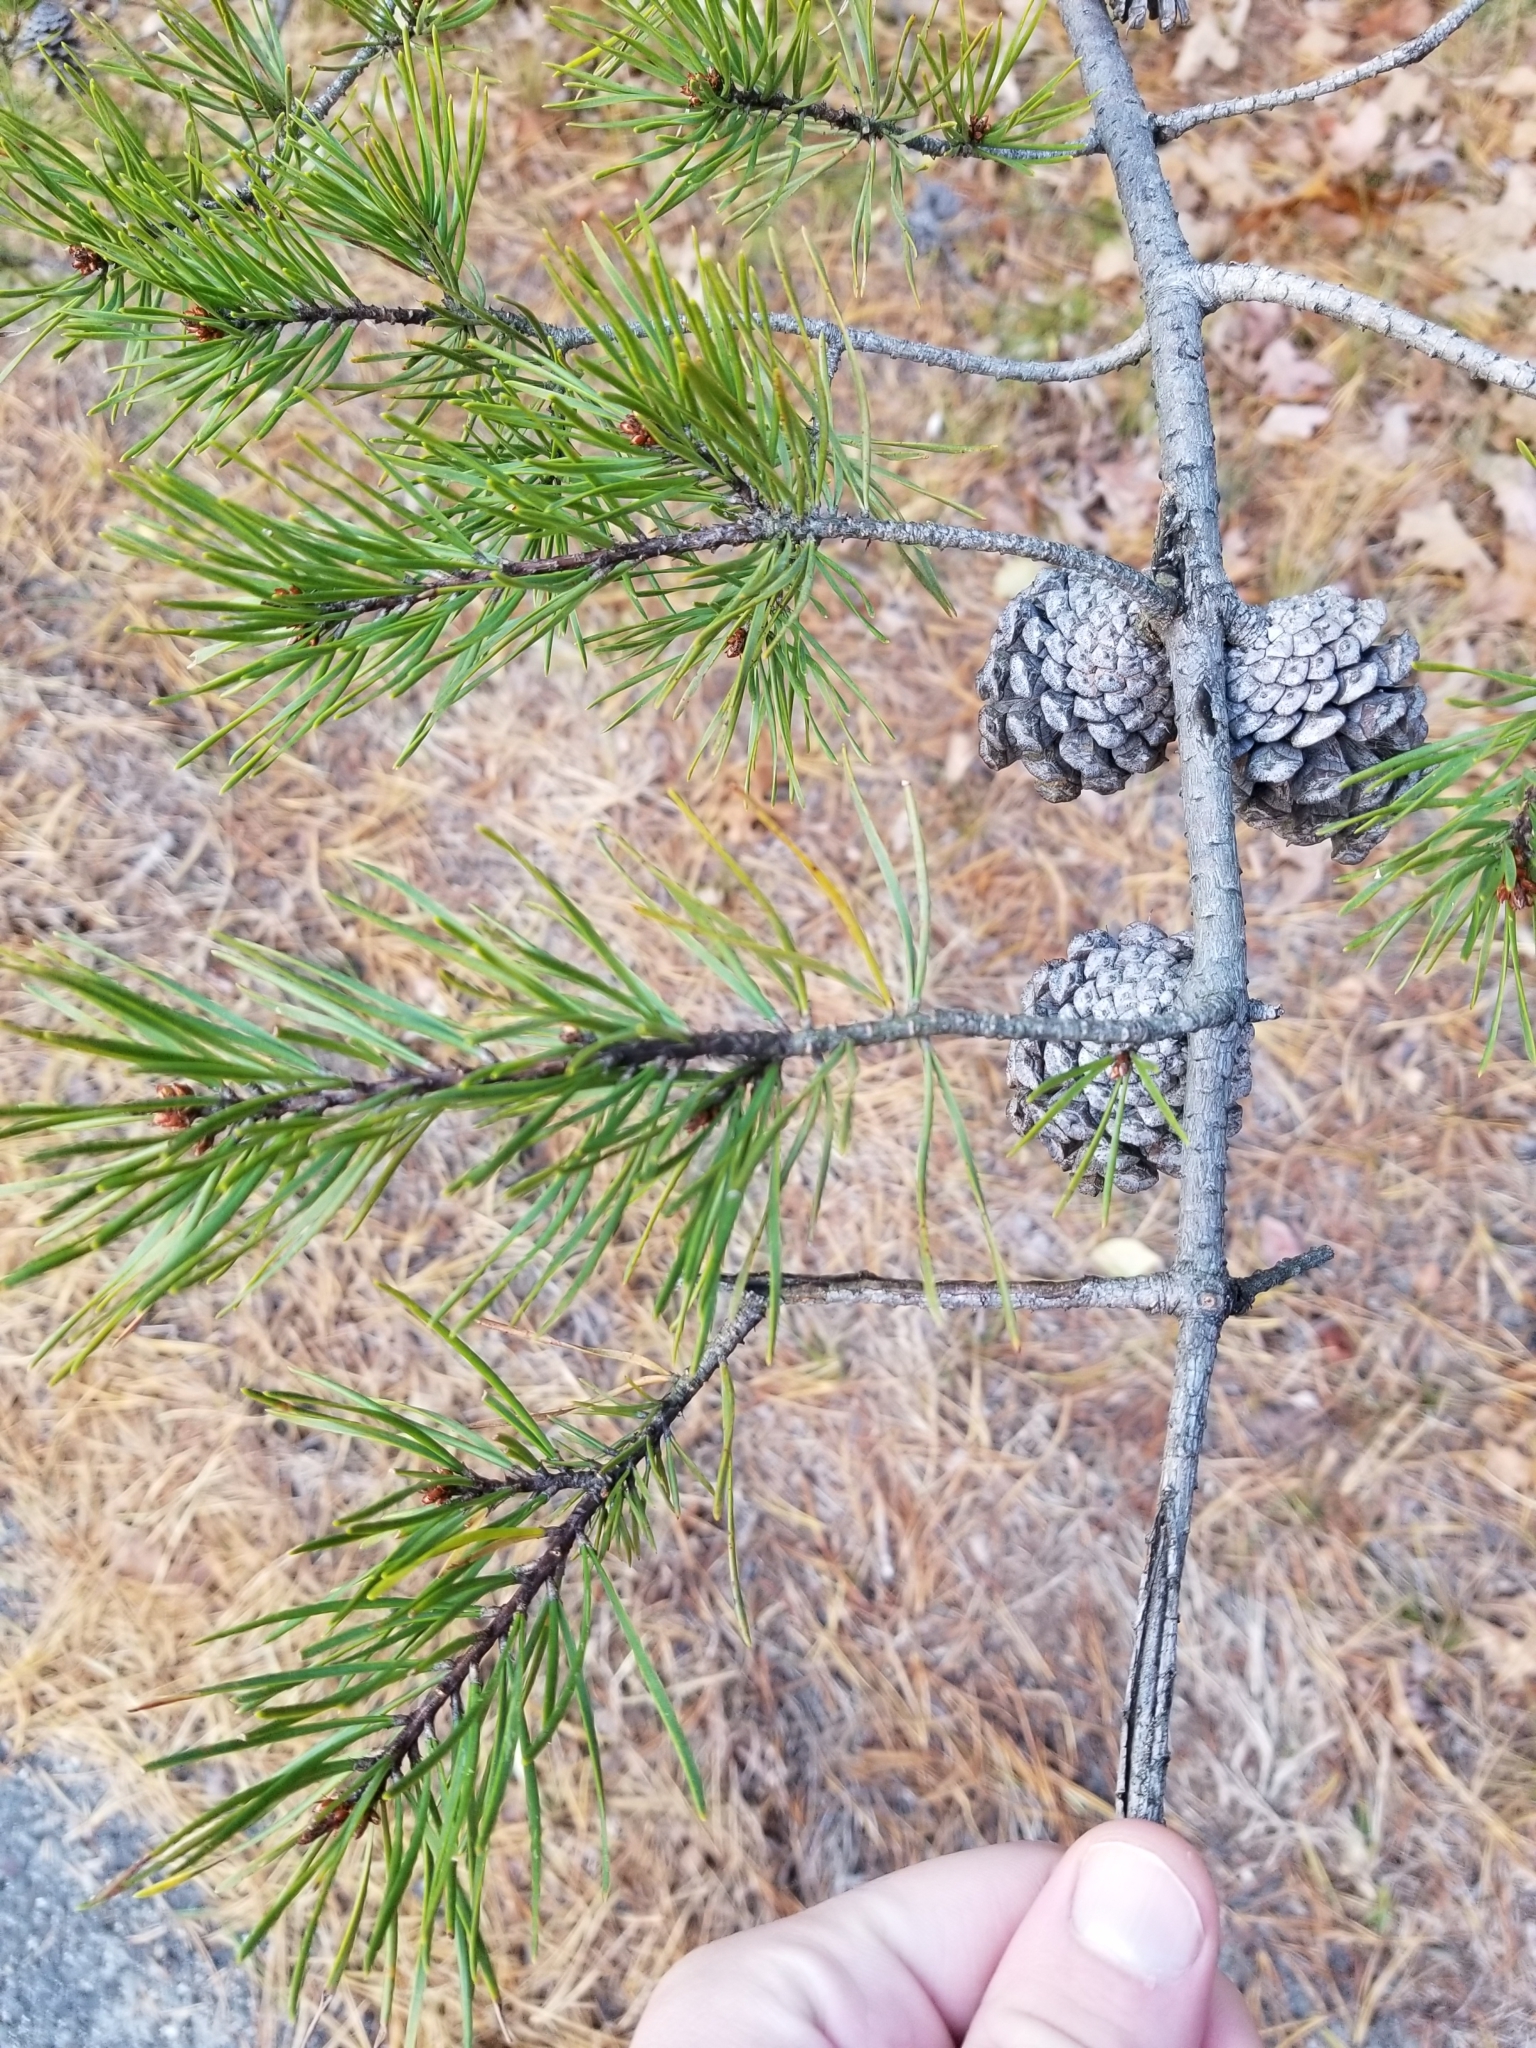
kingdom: Plantae
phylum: Tracheophyta
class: Pinopsida
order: Pinales
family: Pinaceae
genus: Pinus
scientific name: Pinus virginiana
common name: Scrub pine
